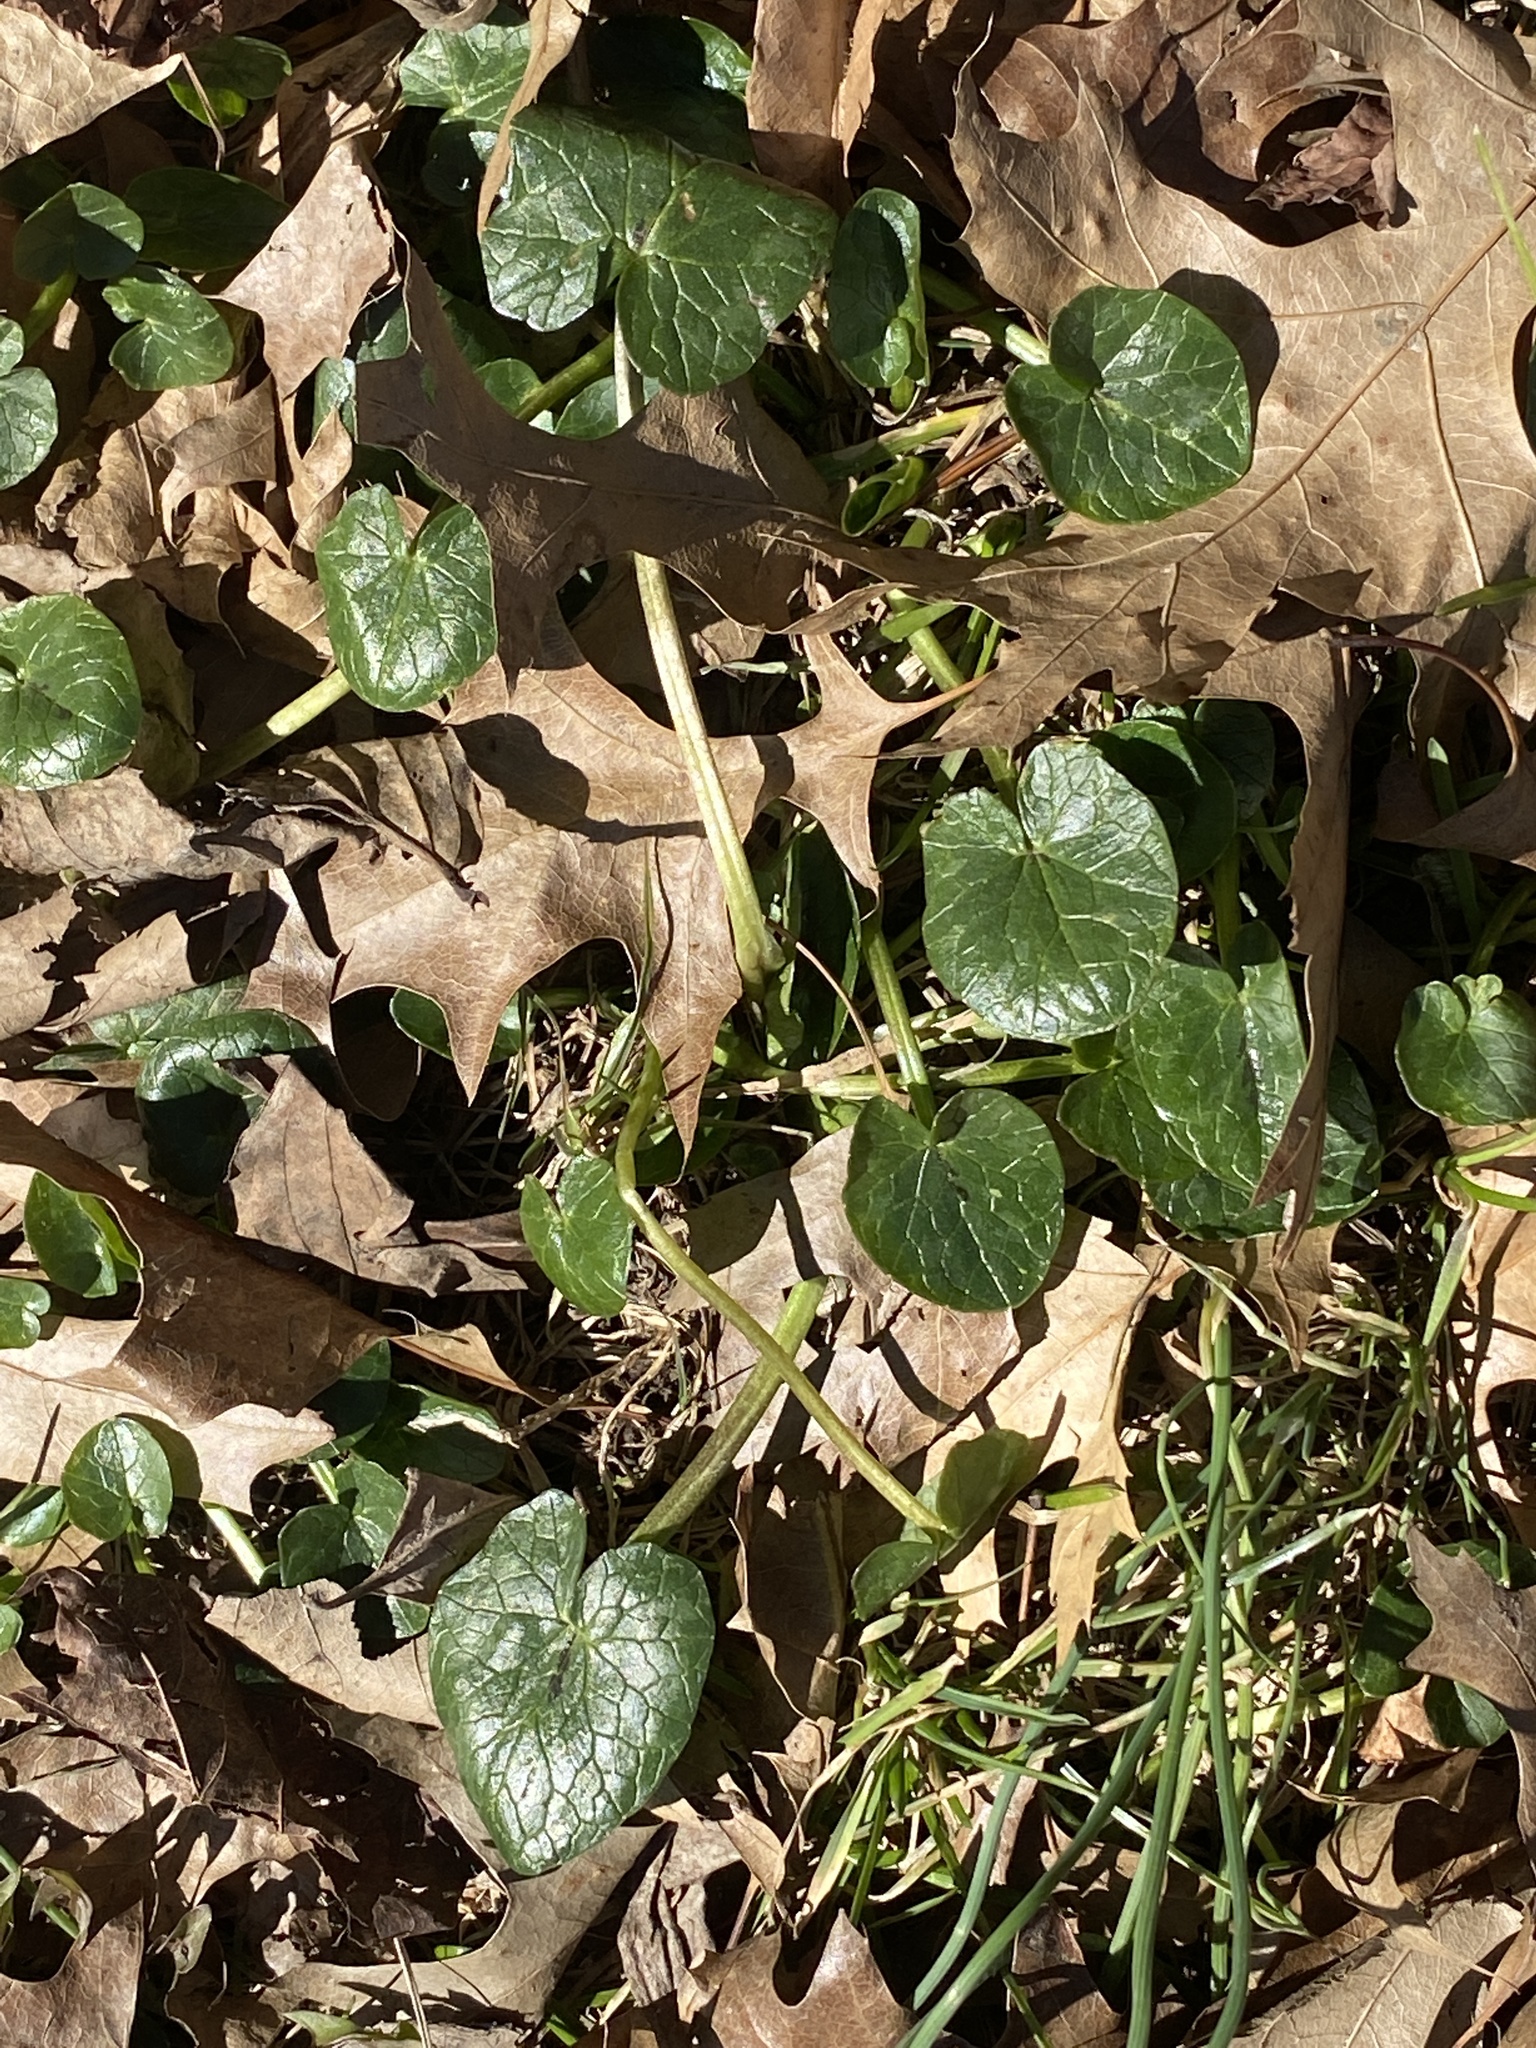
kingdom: Plantae
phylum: Tracheophyta
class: Magnoliopsida
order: Ranunculales
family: Ranunculaceae
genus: Ficaria
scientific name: Ficaria verna
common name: Lesser celandine
